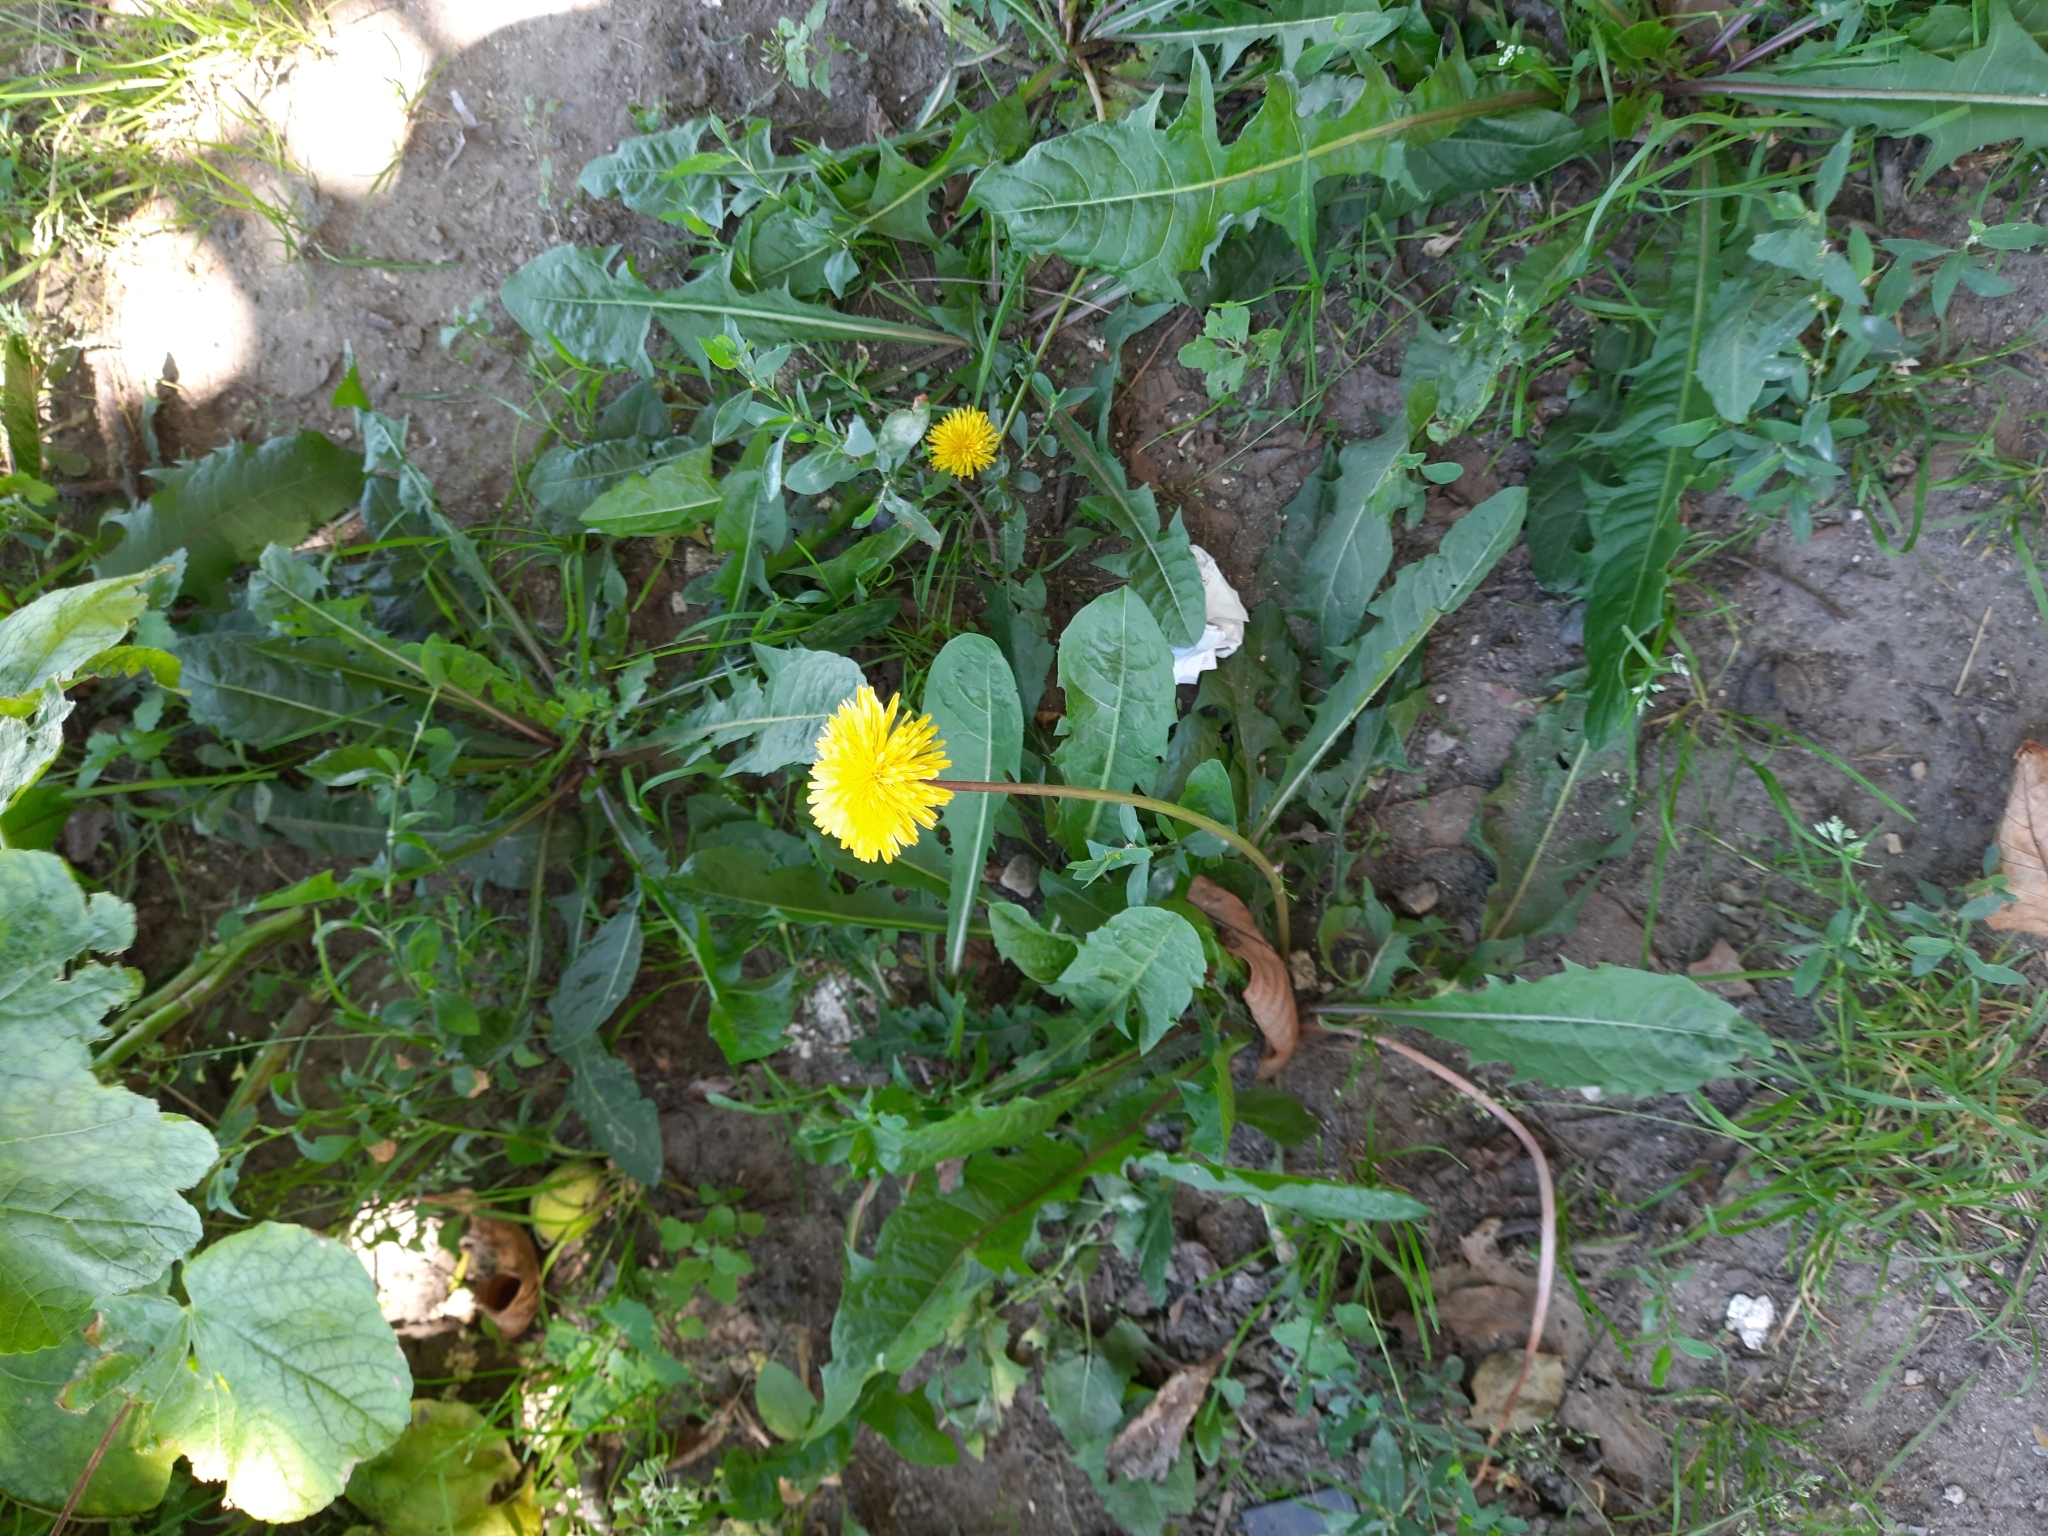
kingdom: Plantae
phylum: Tracheophyta
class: Magnoliopsida
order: Asterales
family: Asteraceae
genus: Taraxacum
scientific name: Taraxacum officinale
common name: Common dandelion
